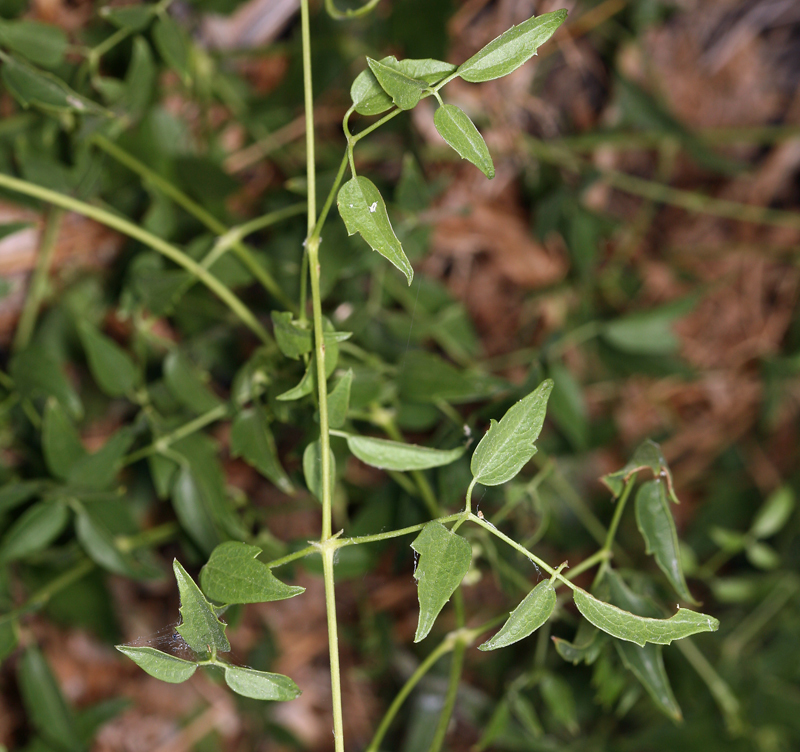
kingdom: Plantae
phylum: Tracheophyta
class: Magnoliopsida
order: Ranunculales
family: Ranunculaceae
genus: Clematis
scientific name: Clematis ligusticifolia
